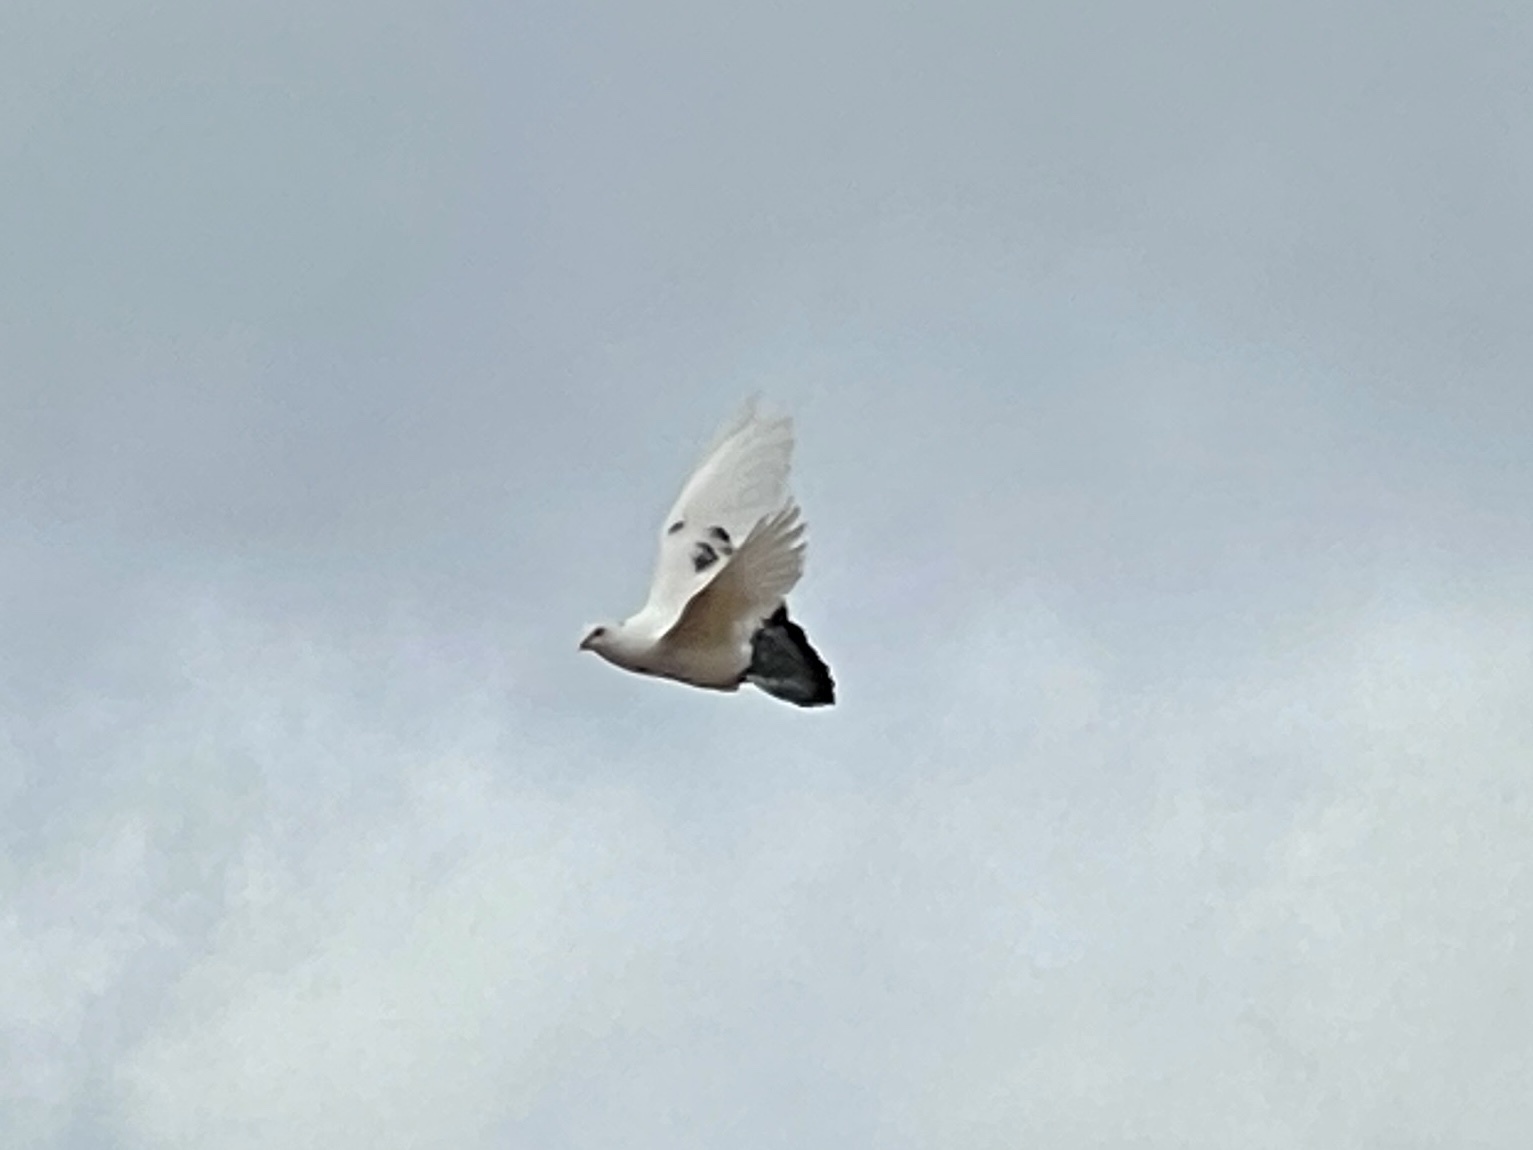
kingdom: Animalia
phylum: Chordata
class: Aves
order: Columbiformes
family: Columbidae
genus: Columba
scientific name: Columba livia
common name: Rock pigeon
